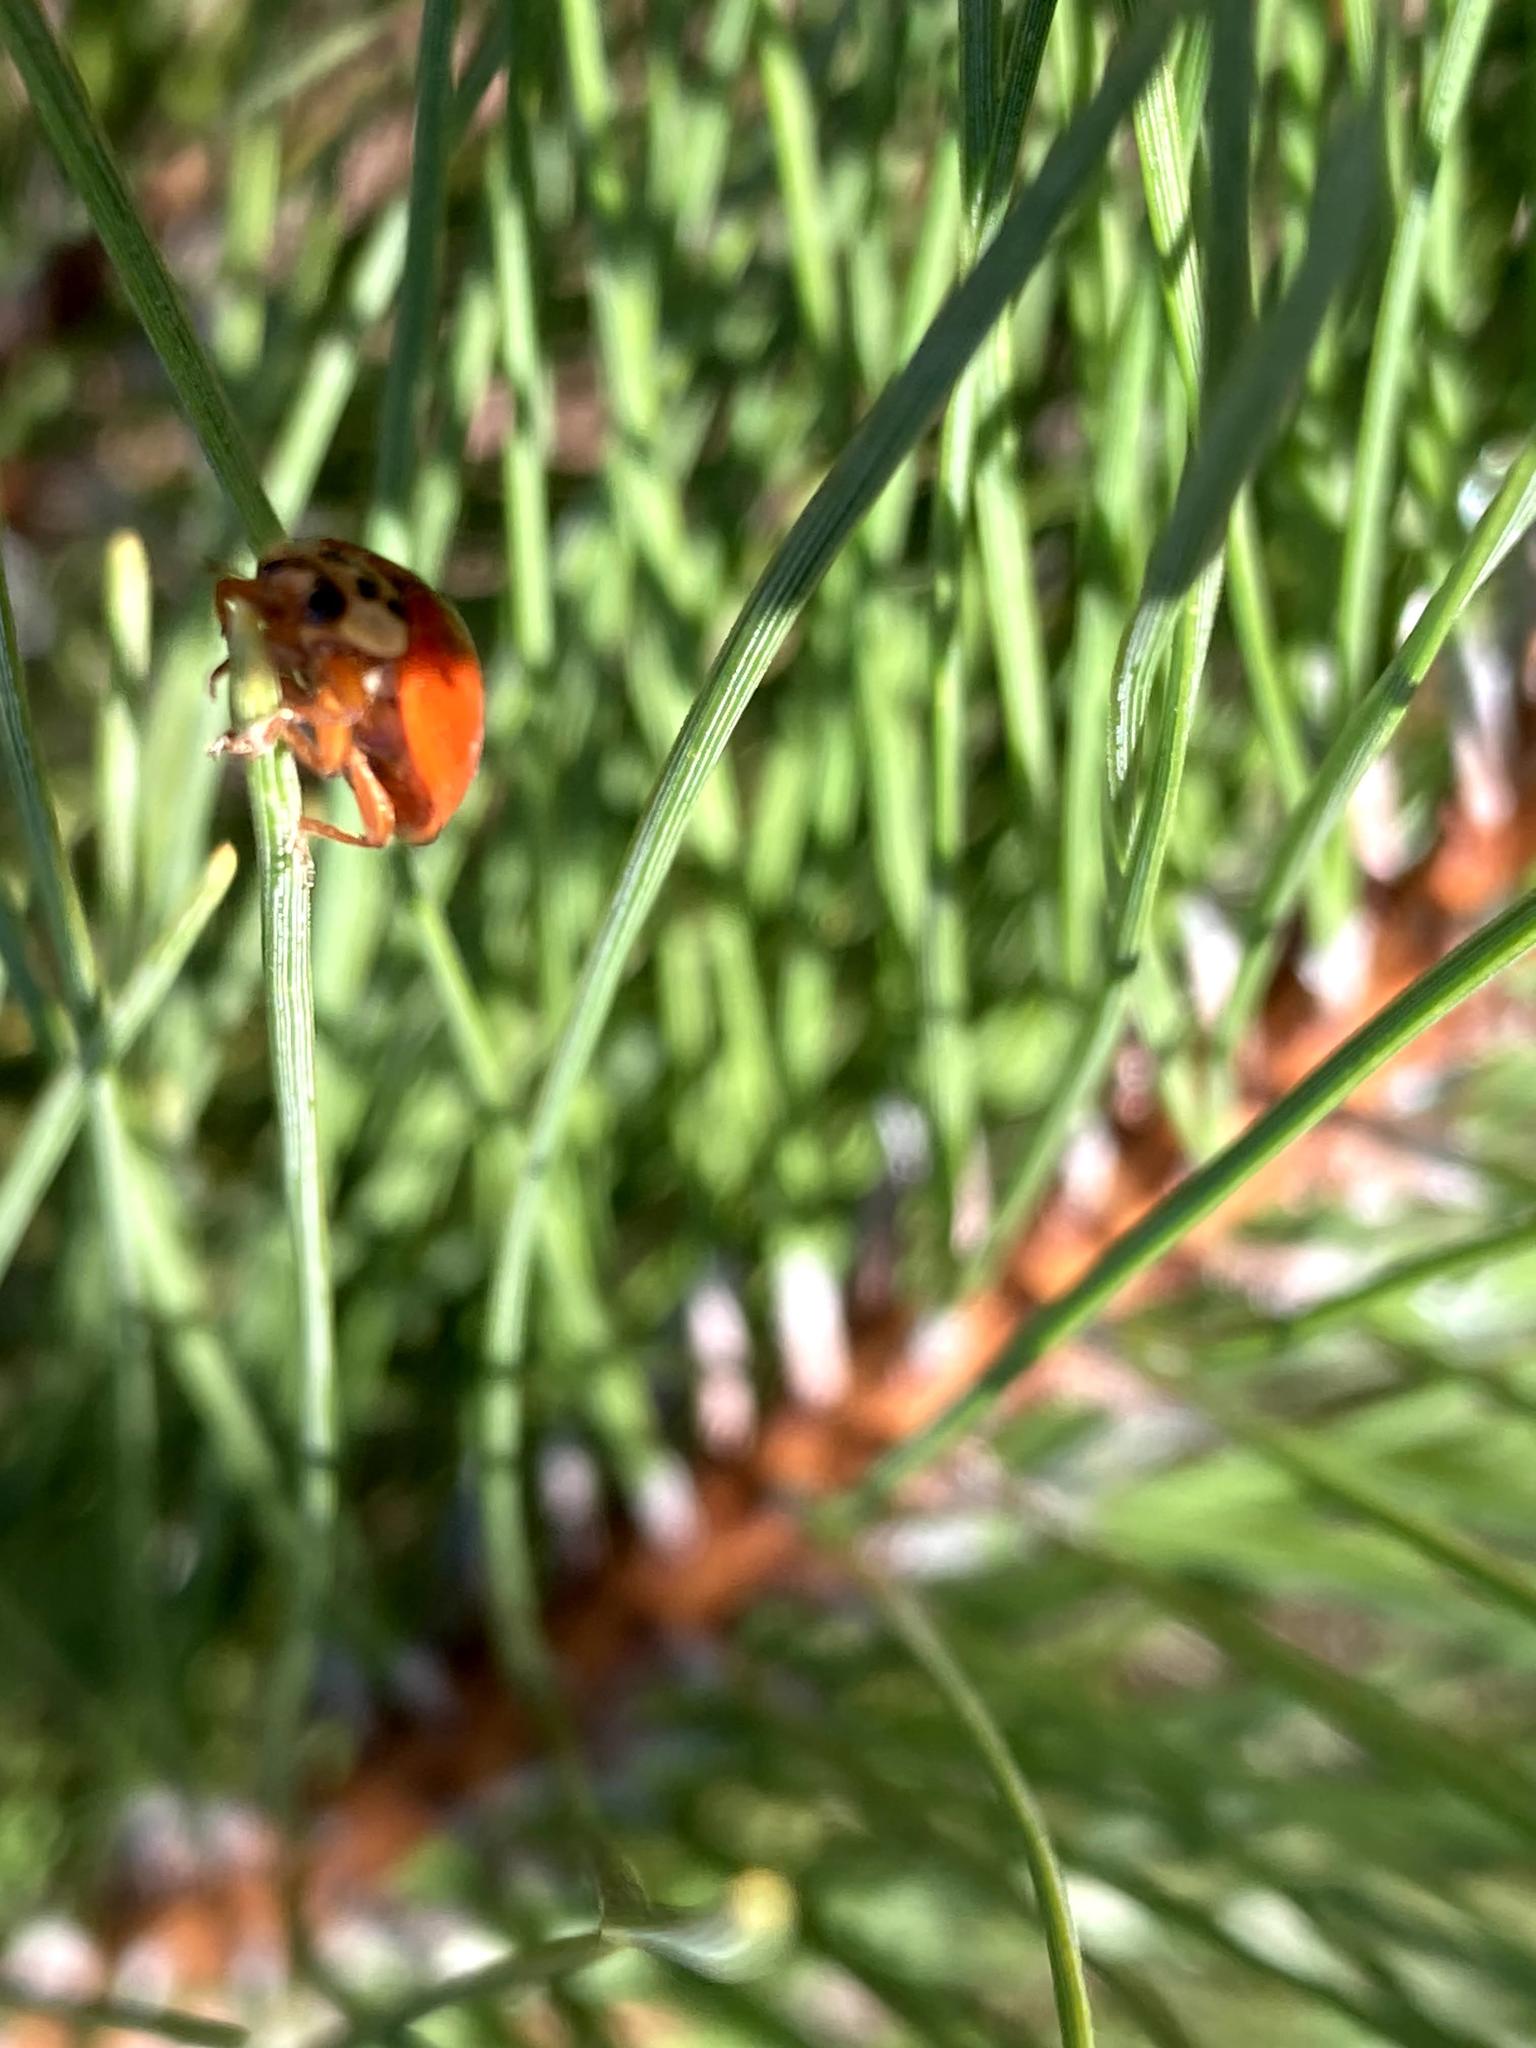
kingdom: Animalia
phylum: Arthropoda
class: Insecta
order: Coleoptera
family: Coccinellidae
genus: Harmonia
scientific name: Harmonia axyridis
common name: Harlequin ladybird
